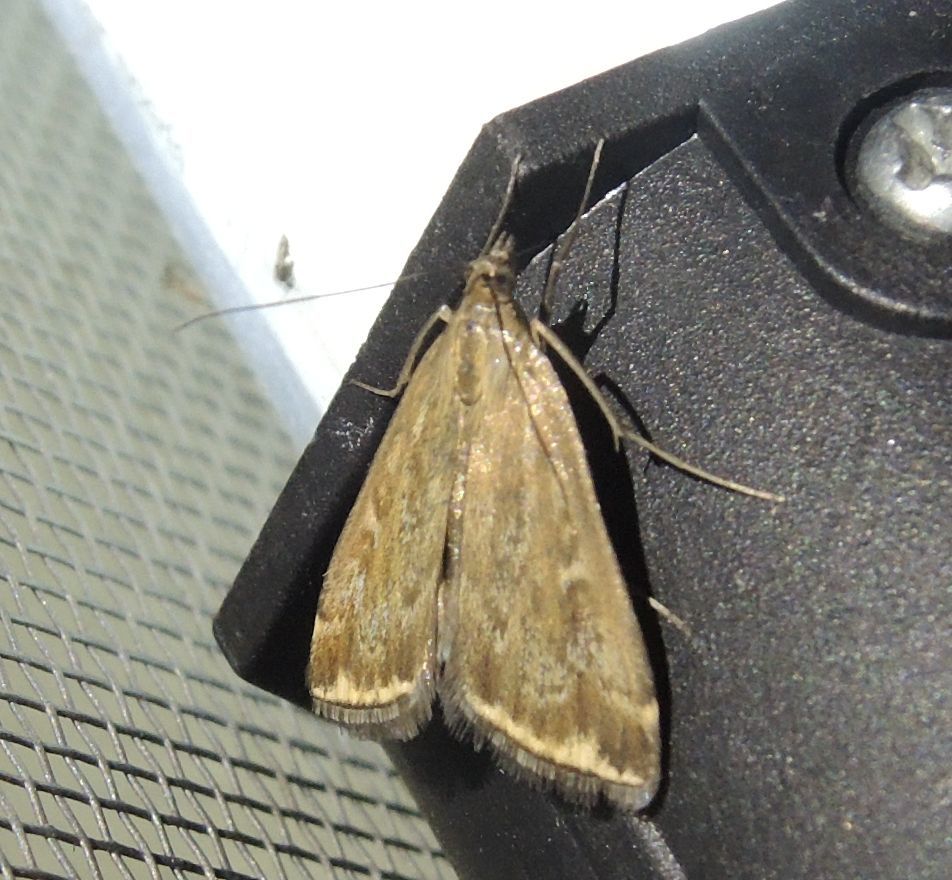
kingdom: Animalia
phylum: Arthropoda
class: Insecta
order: Lepidoptera
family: Crambidae
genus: Loxostege
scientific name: Loxostege sticticalis
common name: Crambid moth
